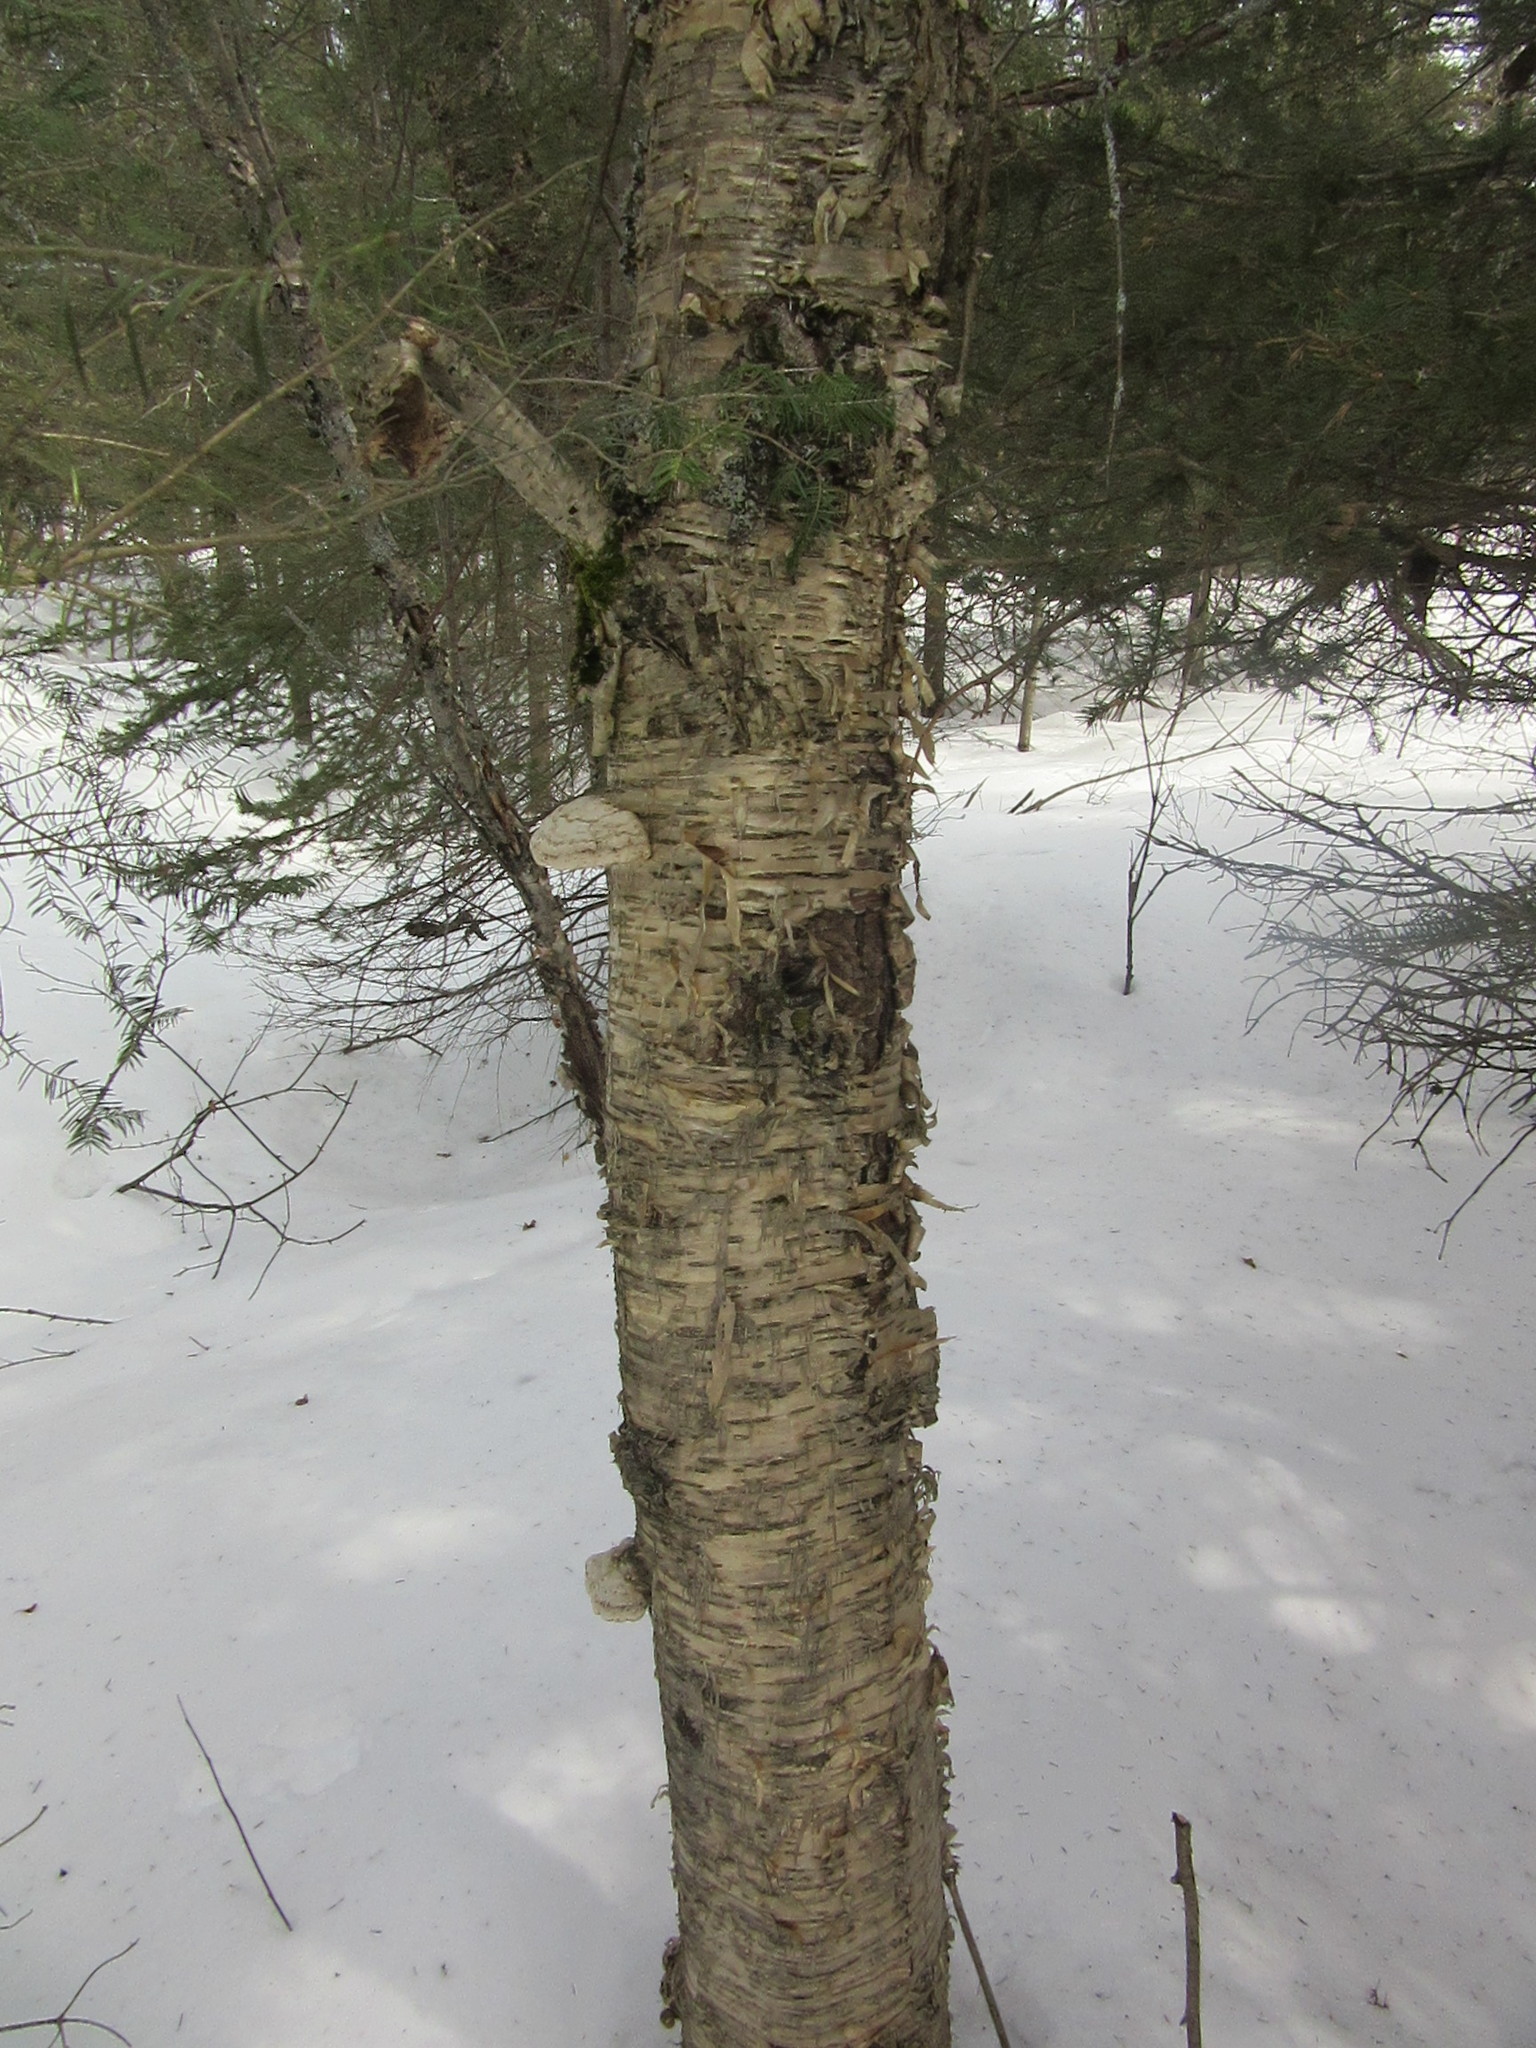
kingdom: Plantae
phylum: Tracheophyta
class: Magnoliopsida
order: Fagales
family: Betulaceae
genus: Betula
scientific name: Betula alleghaniensis
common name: Yellow birch
